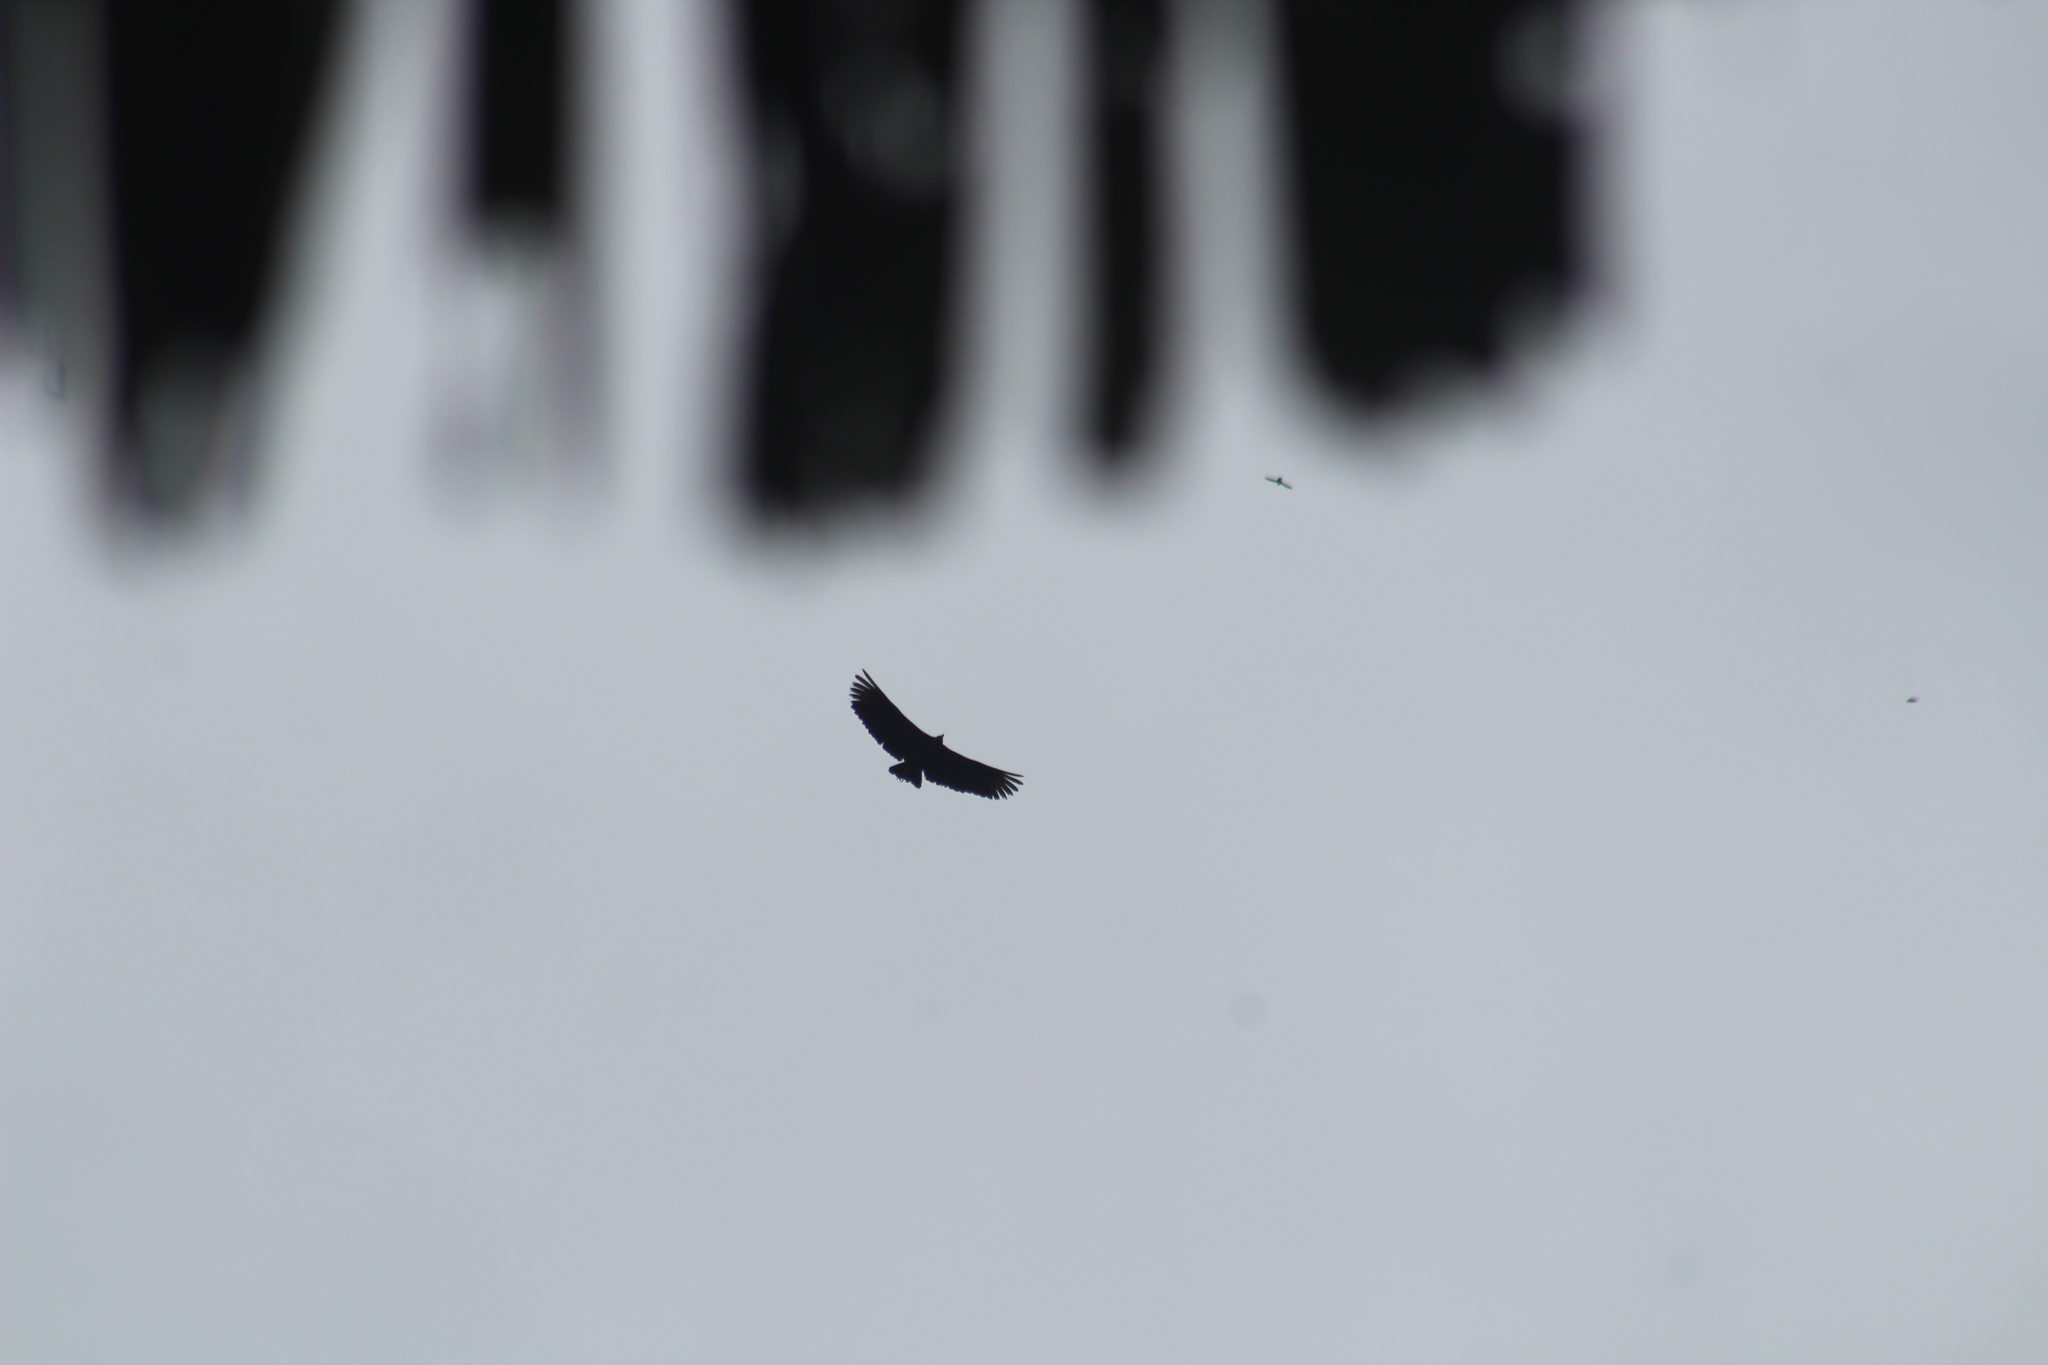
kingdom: Animalia
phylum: Chordata
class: Aves
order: Accipitriformes
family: Cathartidae
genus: Coragyps
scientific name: Coragyps atratus
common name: Black vulture
